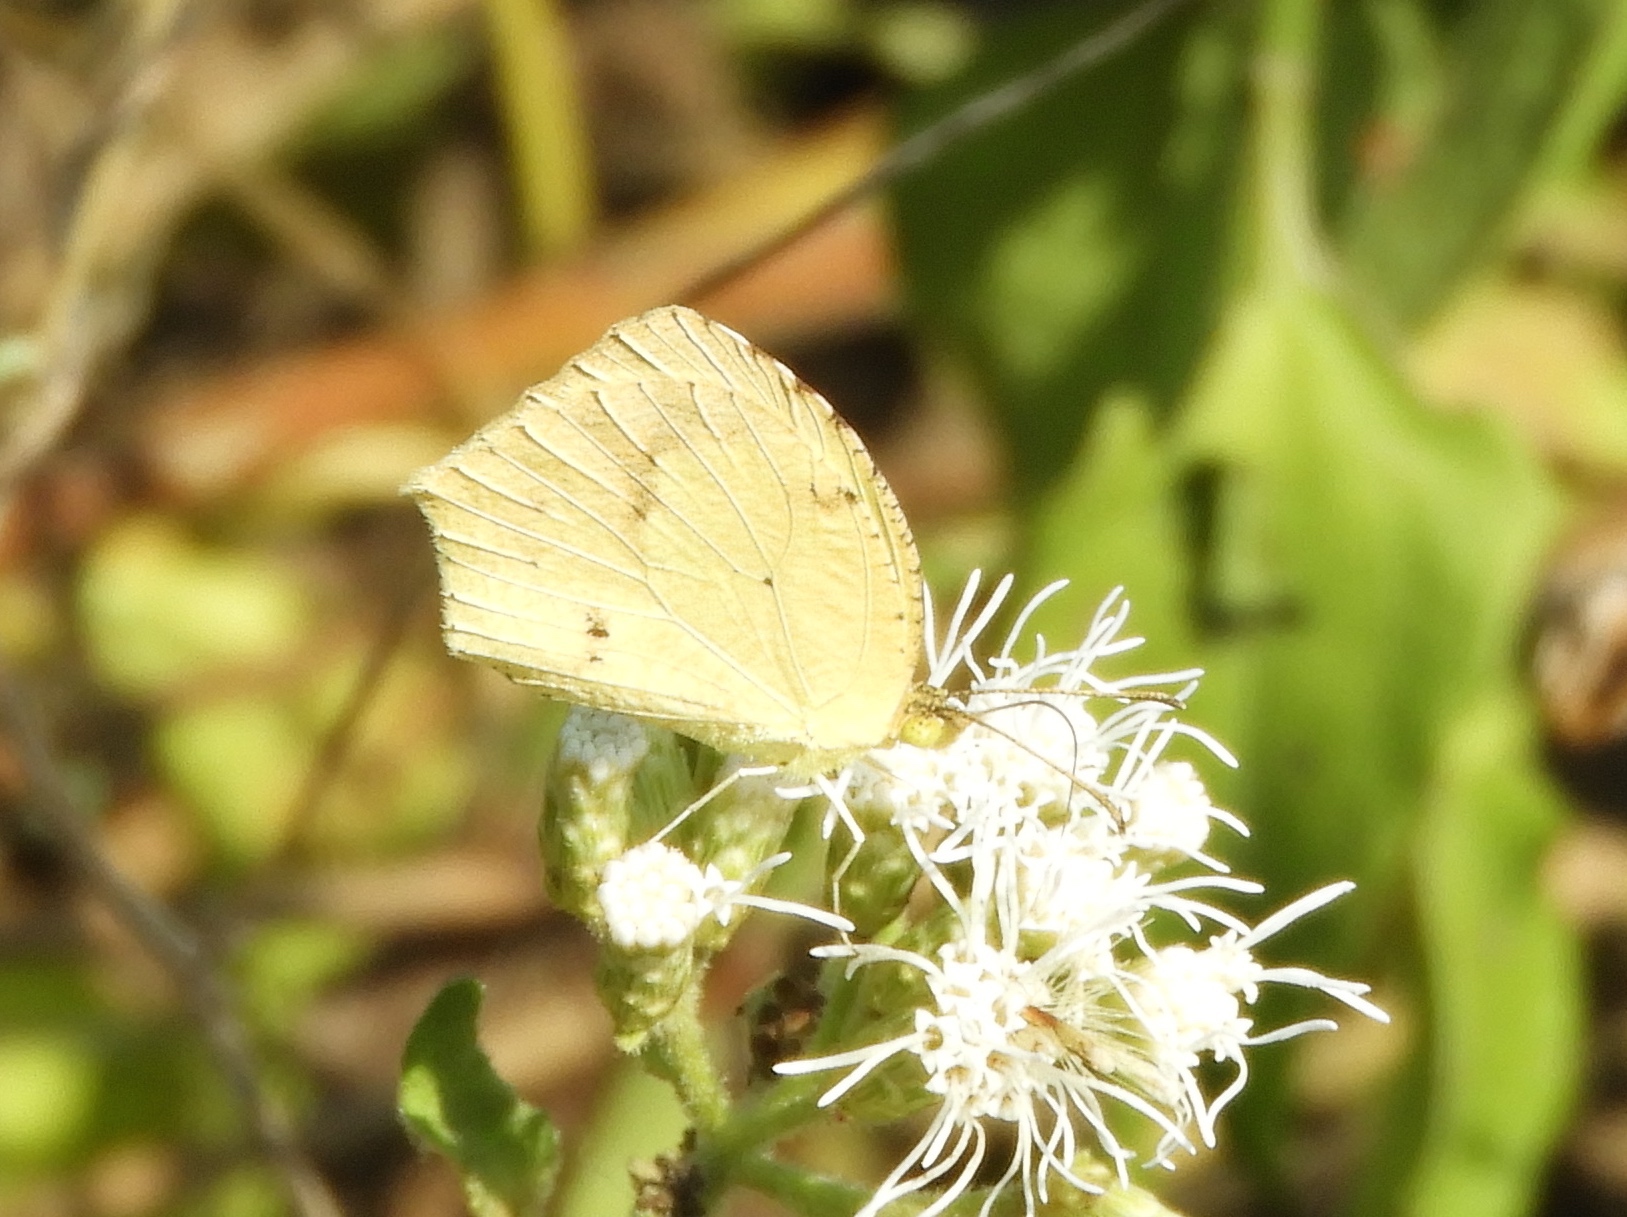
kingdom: Animalia
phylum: Arthropoda
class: Insecta
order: Lepidoptera
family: Pieridae
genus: Abaeis
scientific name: Abaeis boisduvaliana
